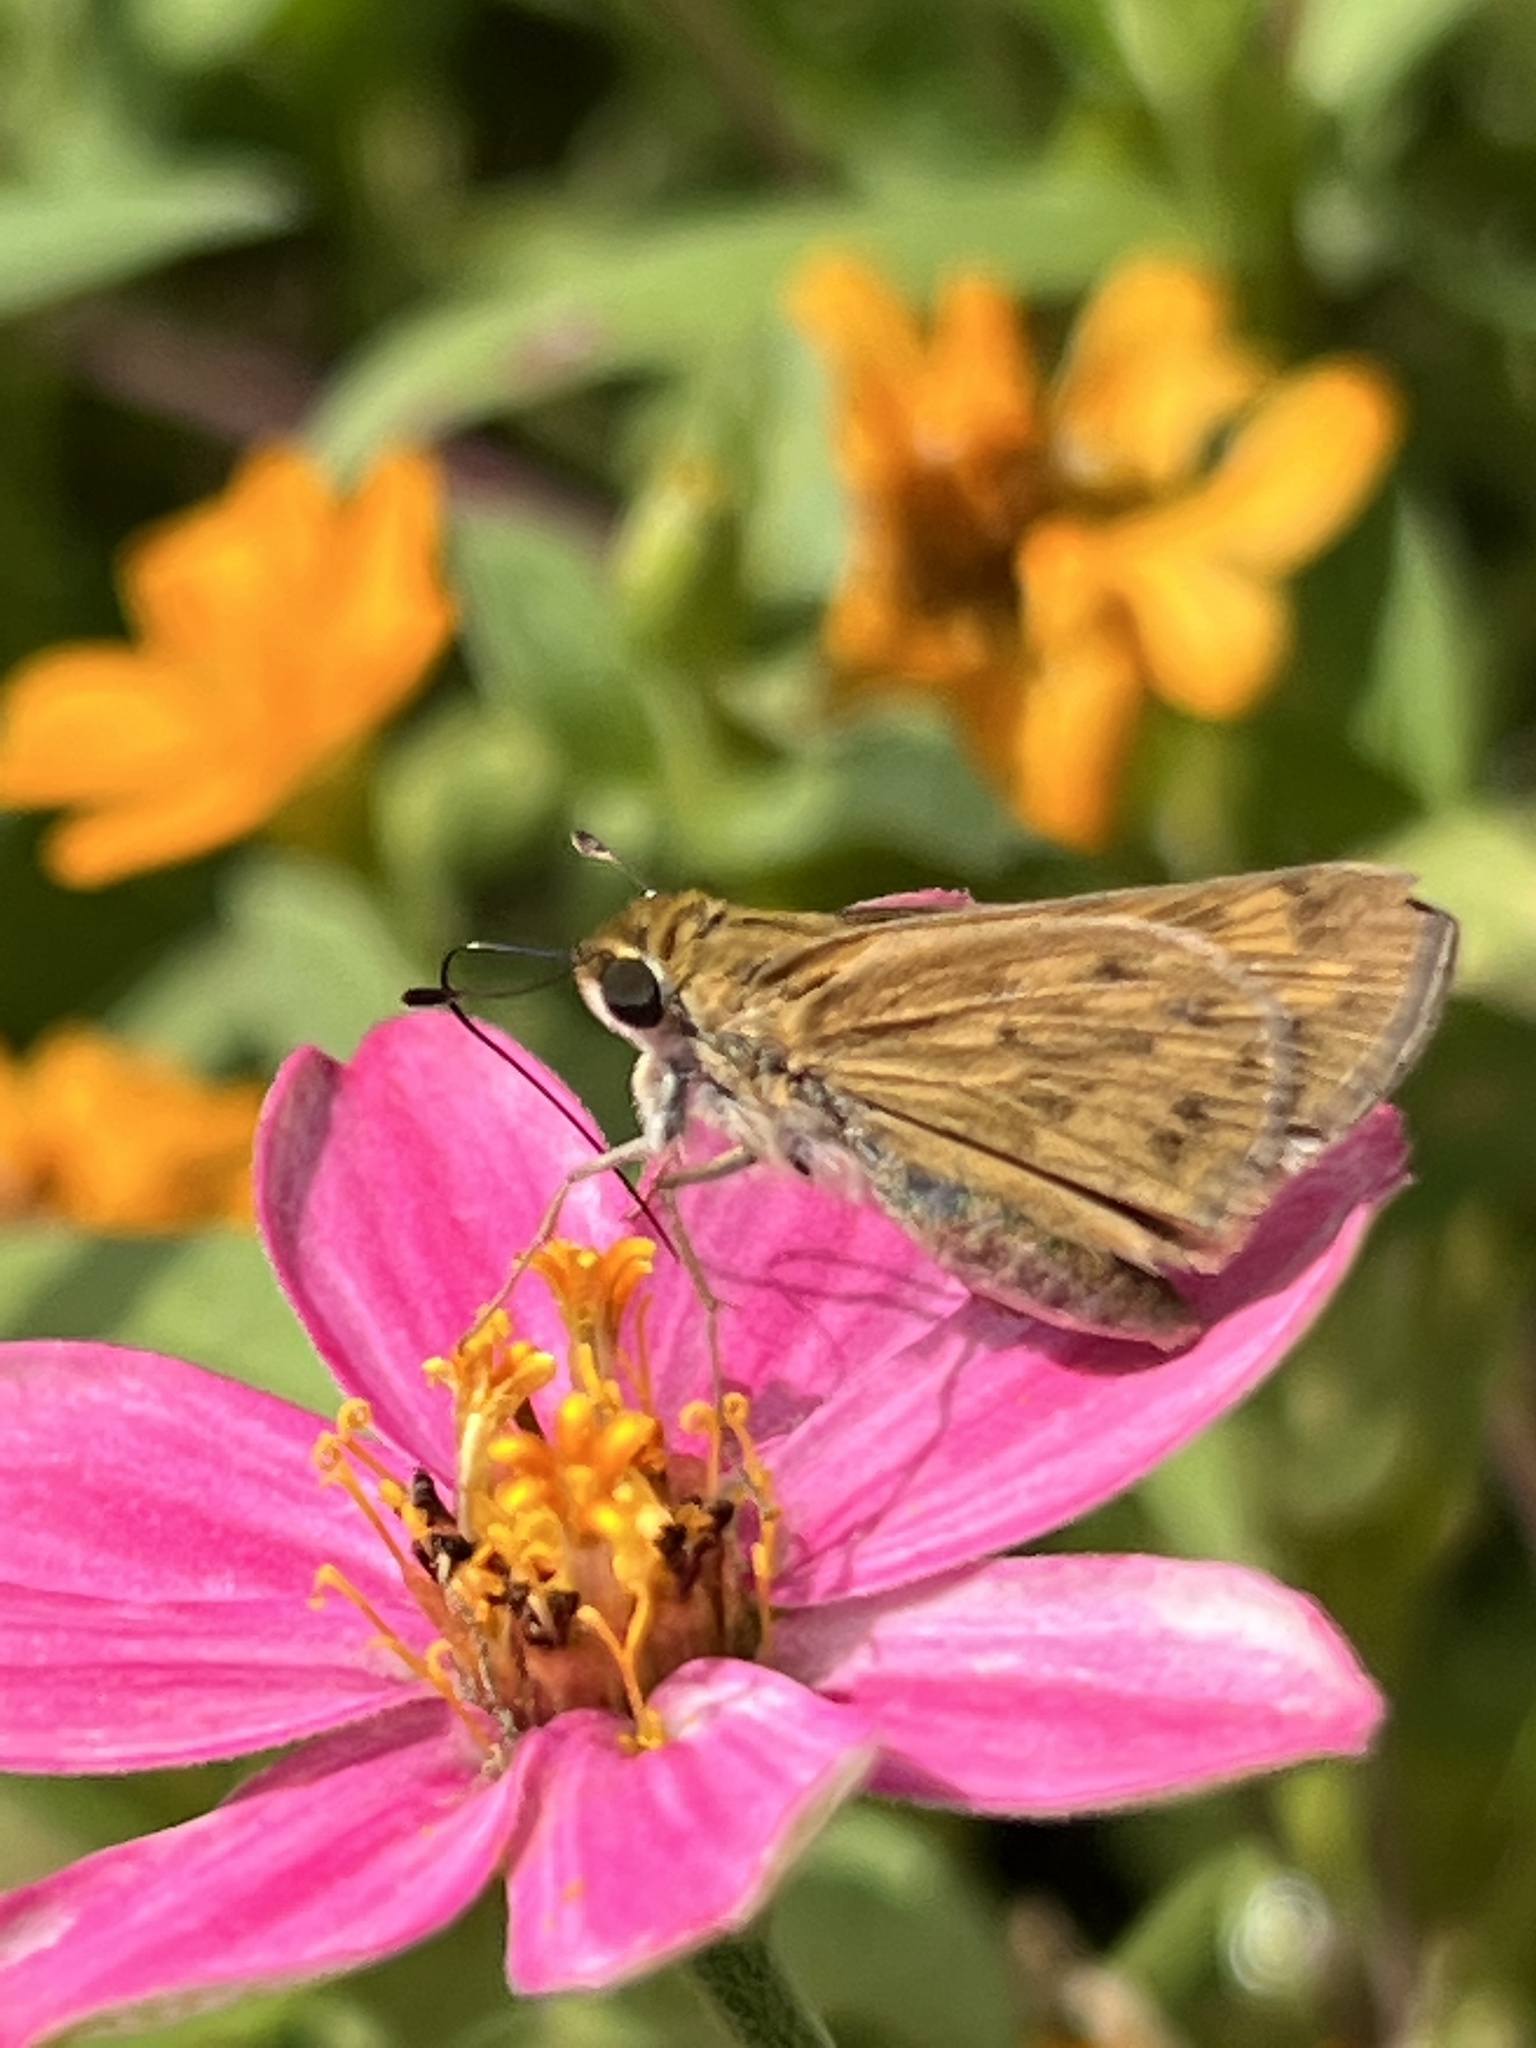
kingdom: Animalia
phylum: Arthropoda
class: Insecta
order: Lepidoptera
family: Hesperiidae
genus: Hylephila
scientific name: Hylephila phyleus
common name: Fiery skipper
